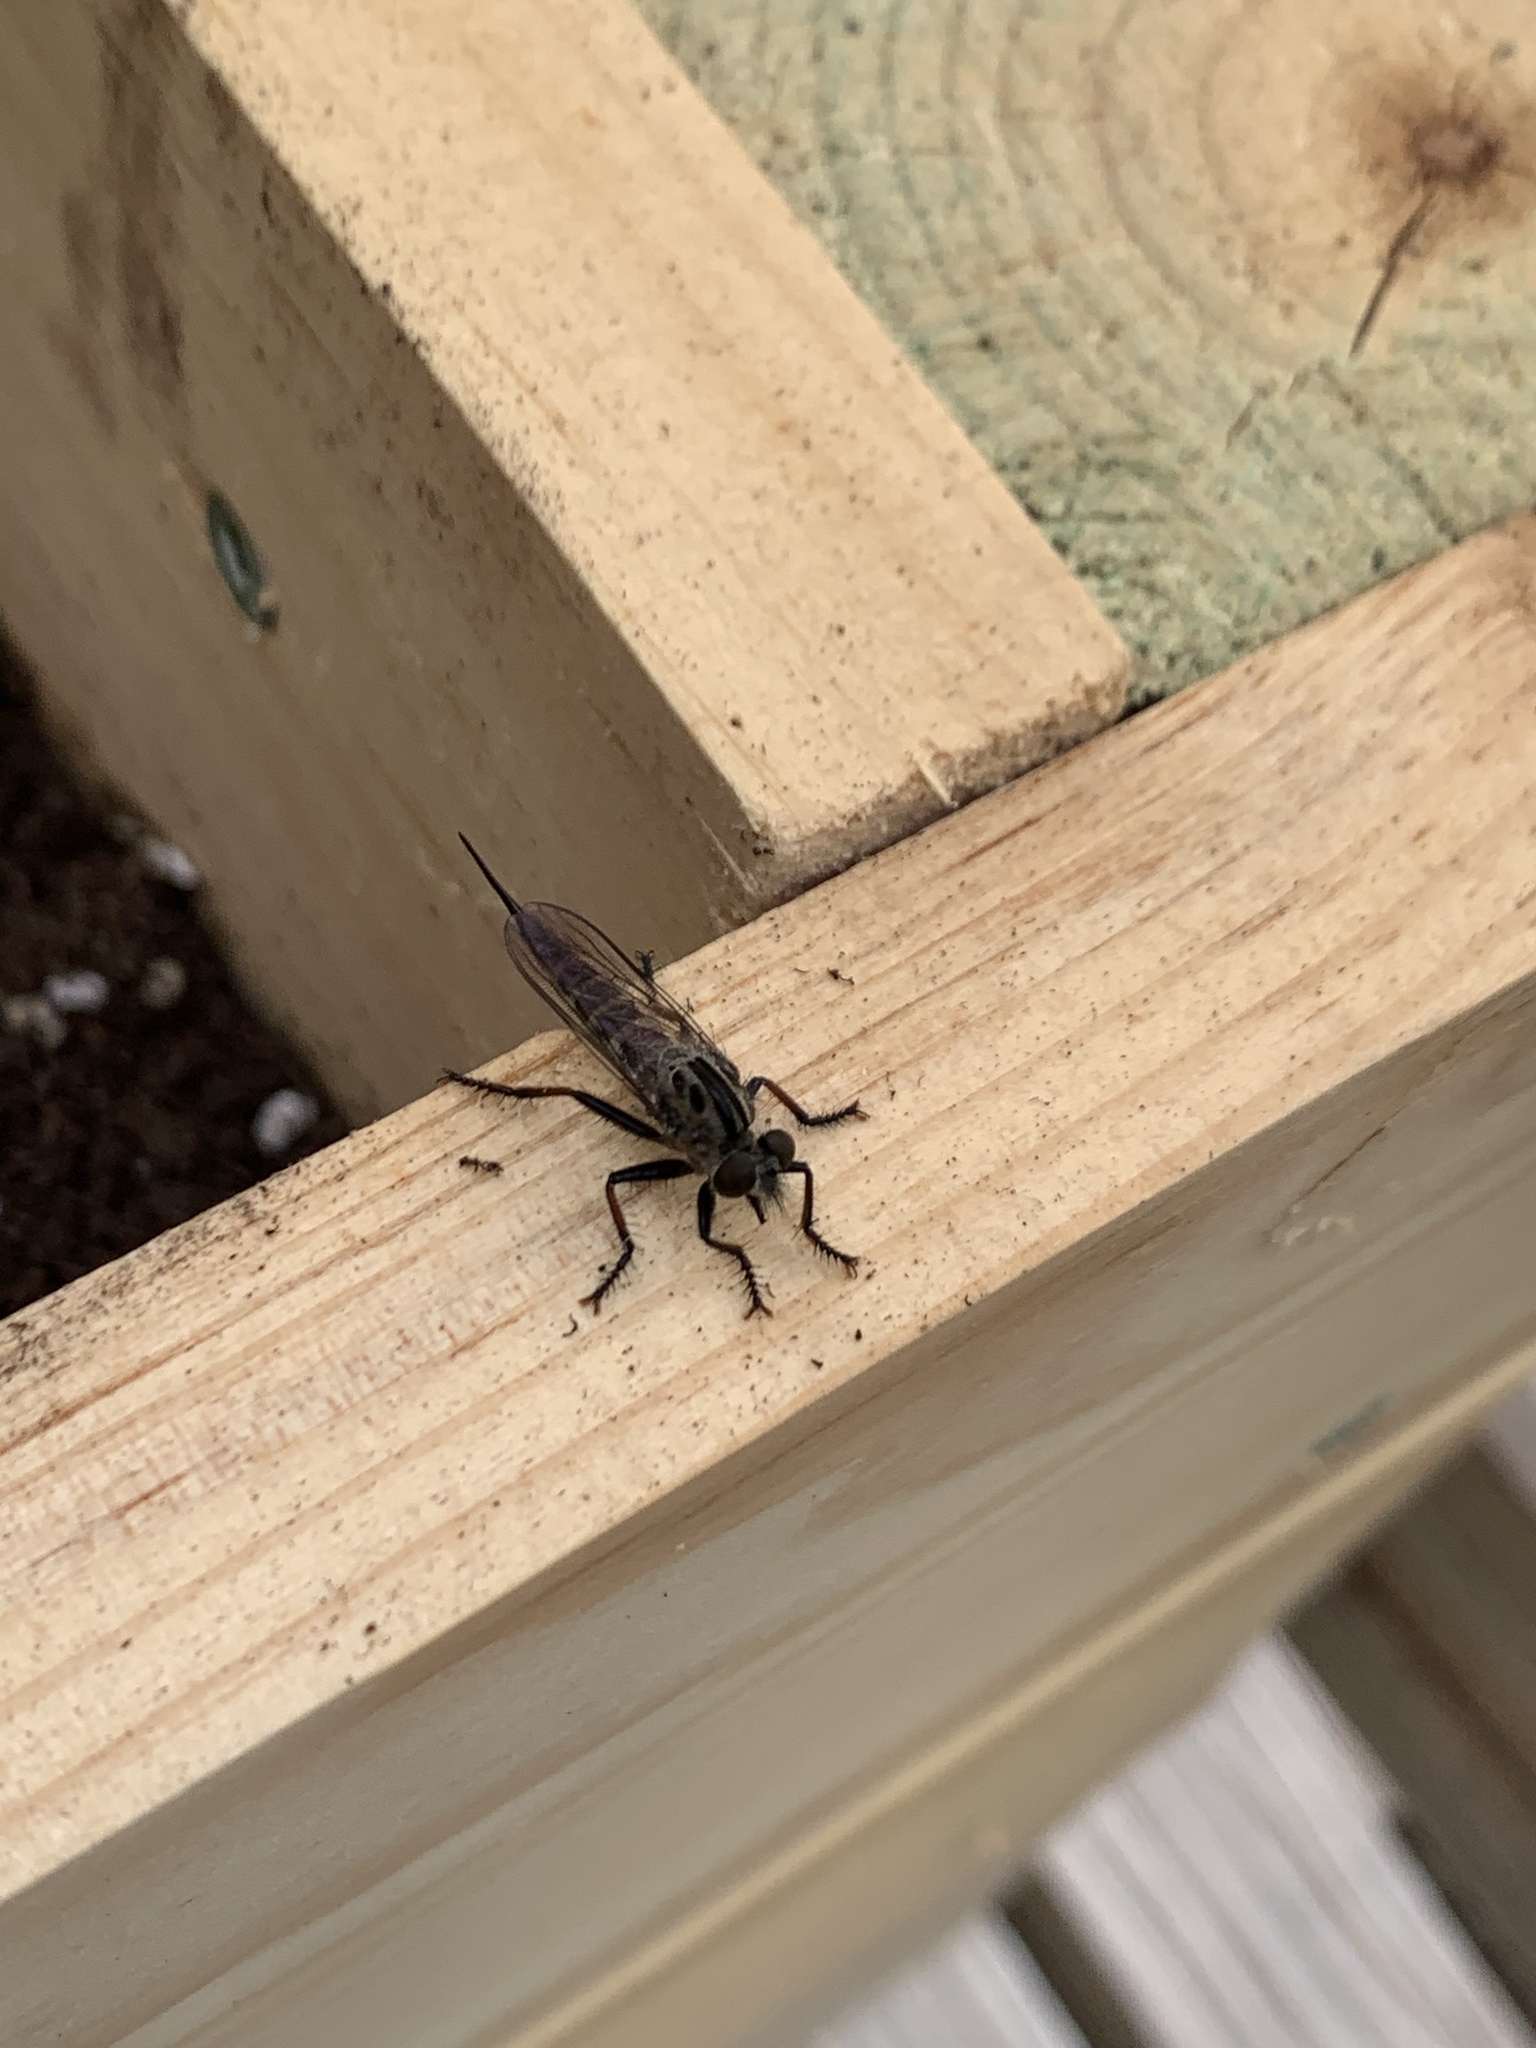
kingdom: Animalia
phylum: Arthropoda
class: Insecta
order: Diptera
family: Asilidae
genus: Efferia
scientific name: Efferia aestuans
